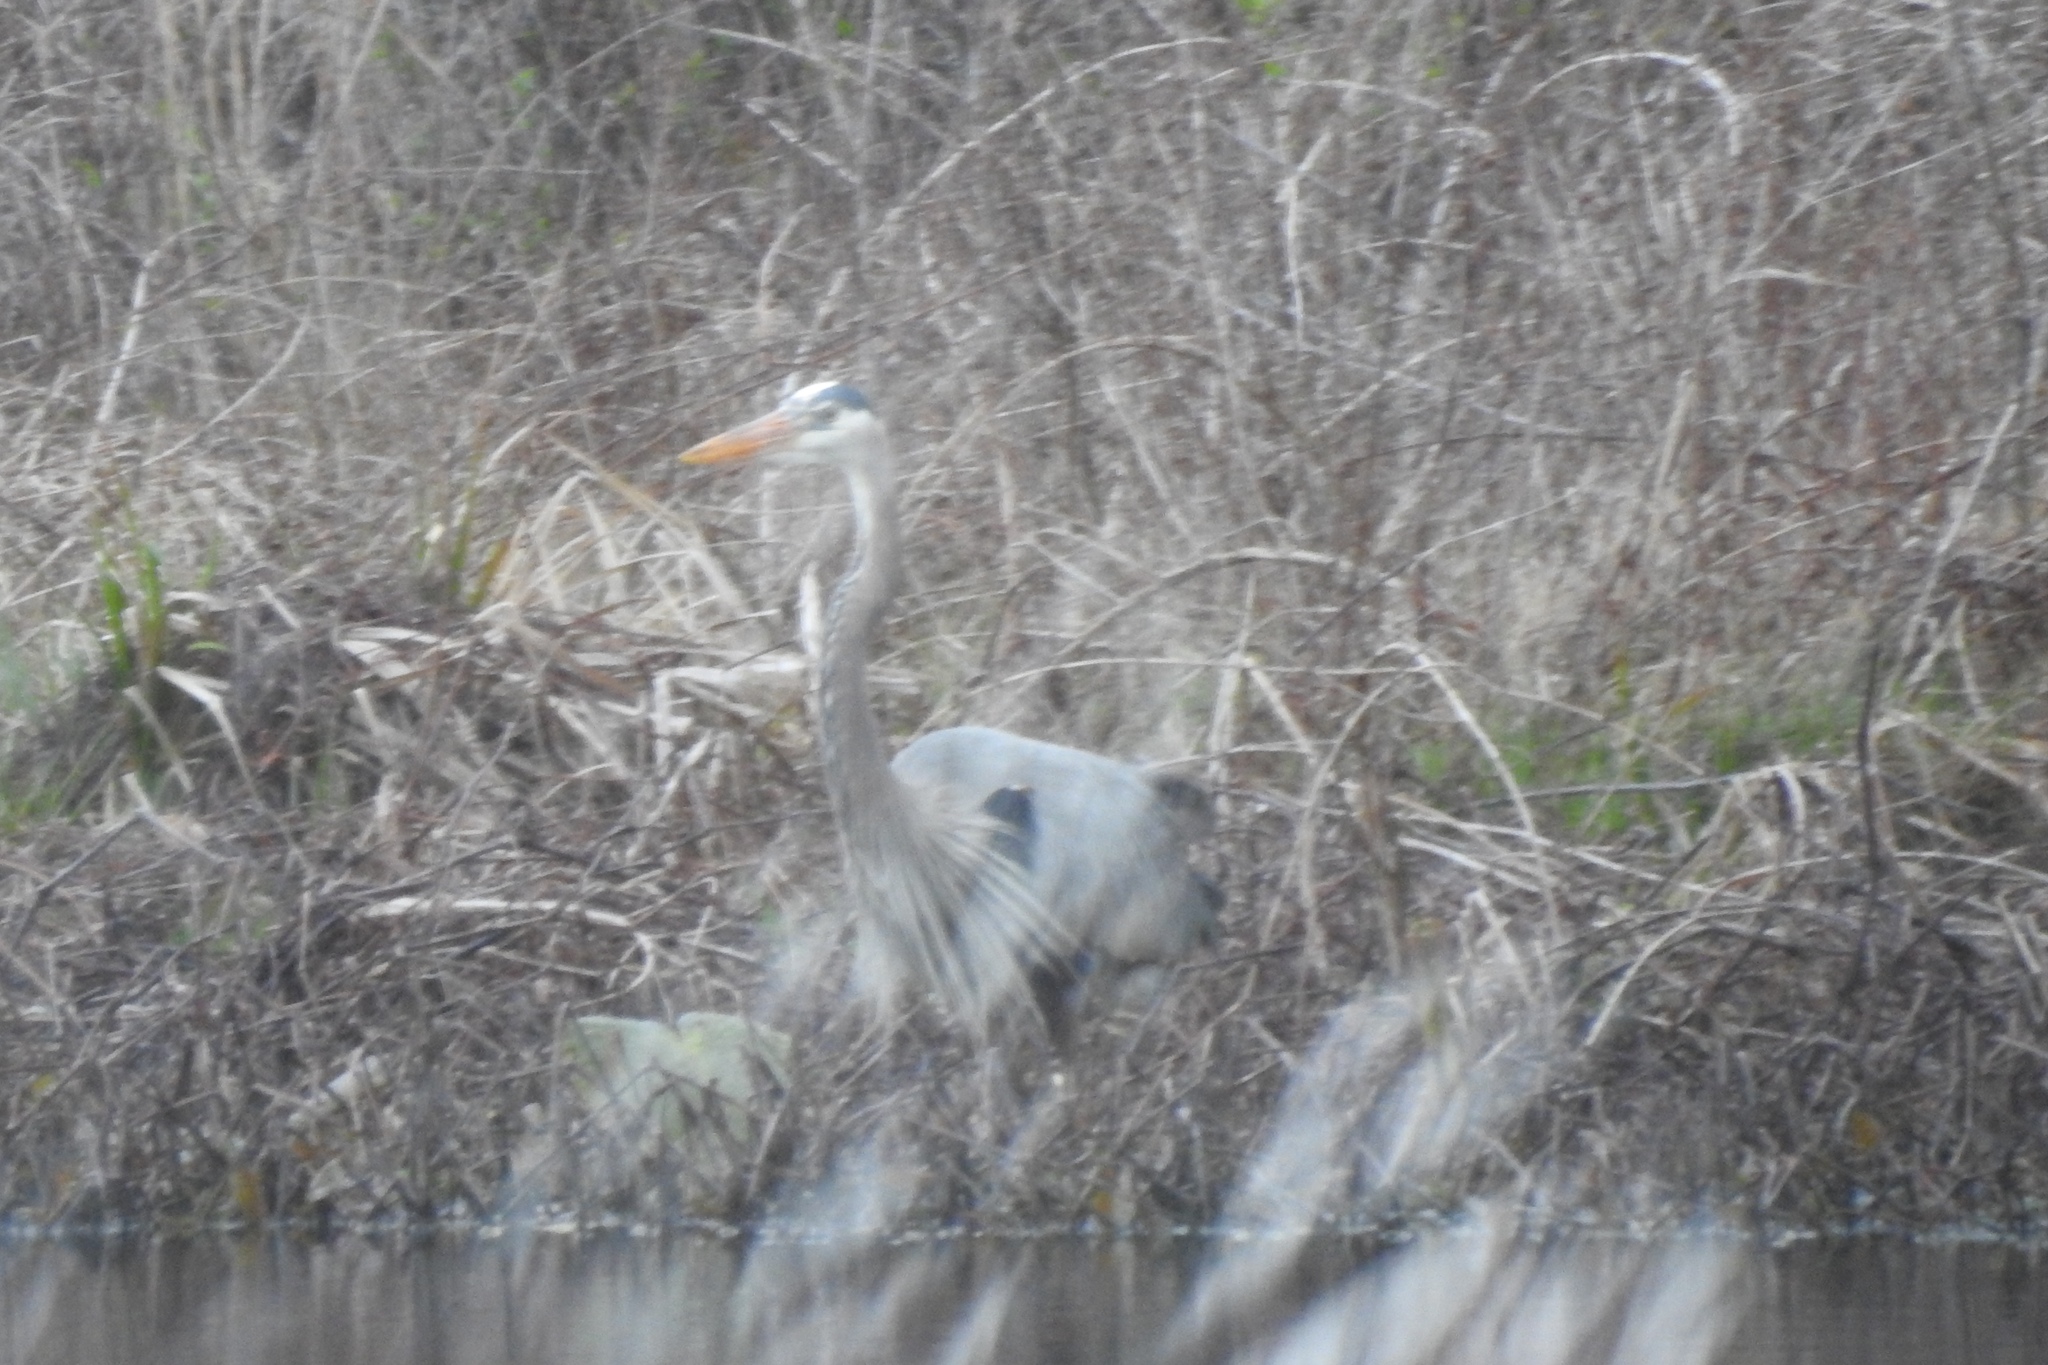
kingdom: Animalia
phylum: Chordata
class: Aves
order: Pelecaniformes
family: Ardeidae
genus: Ardea
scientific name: Ardea herodias
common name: Great blue heron
